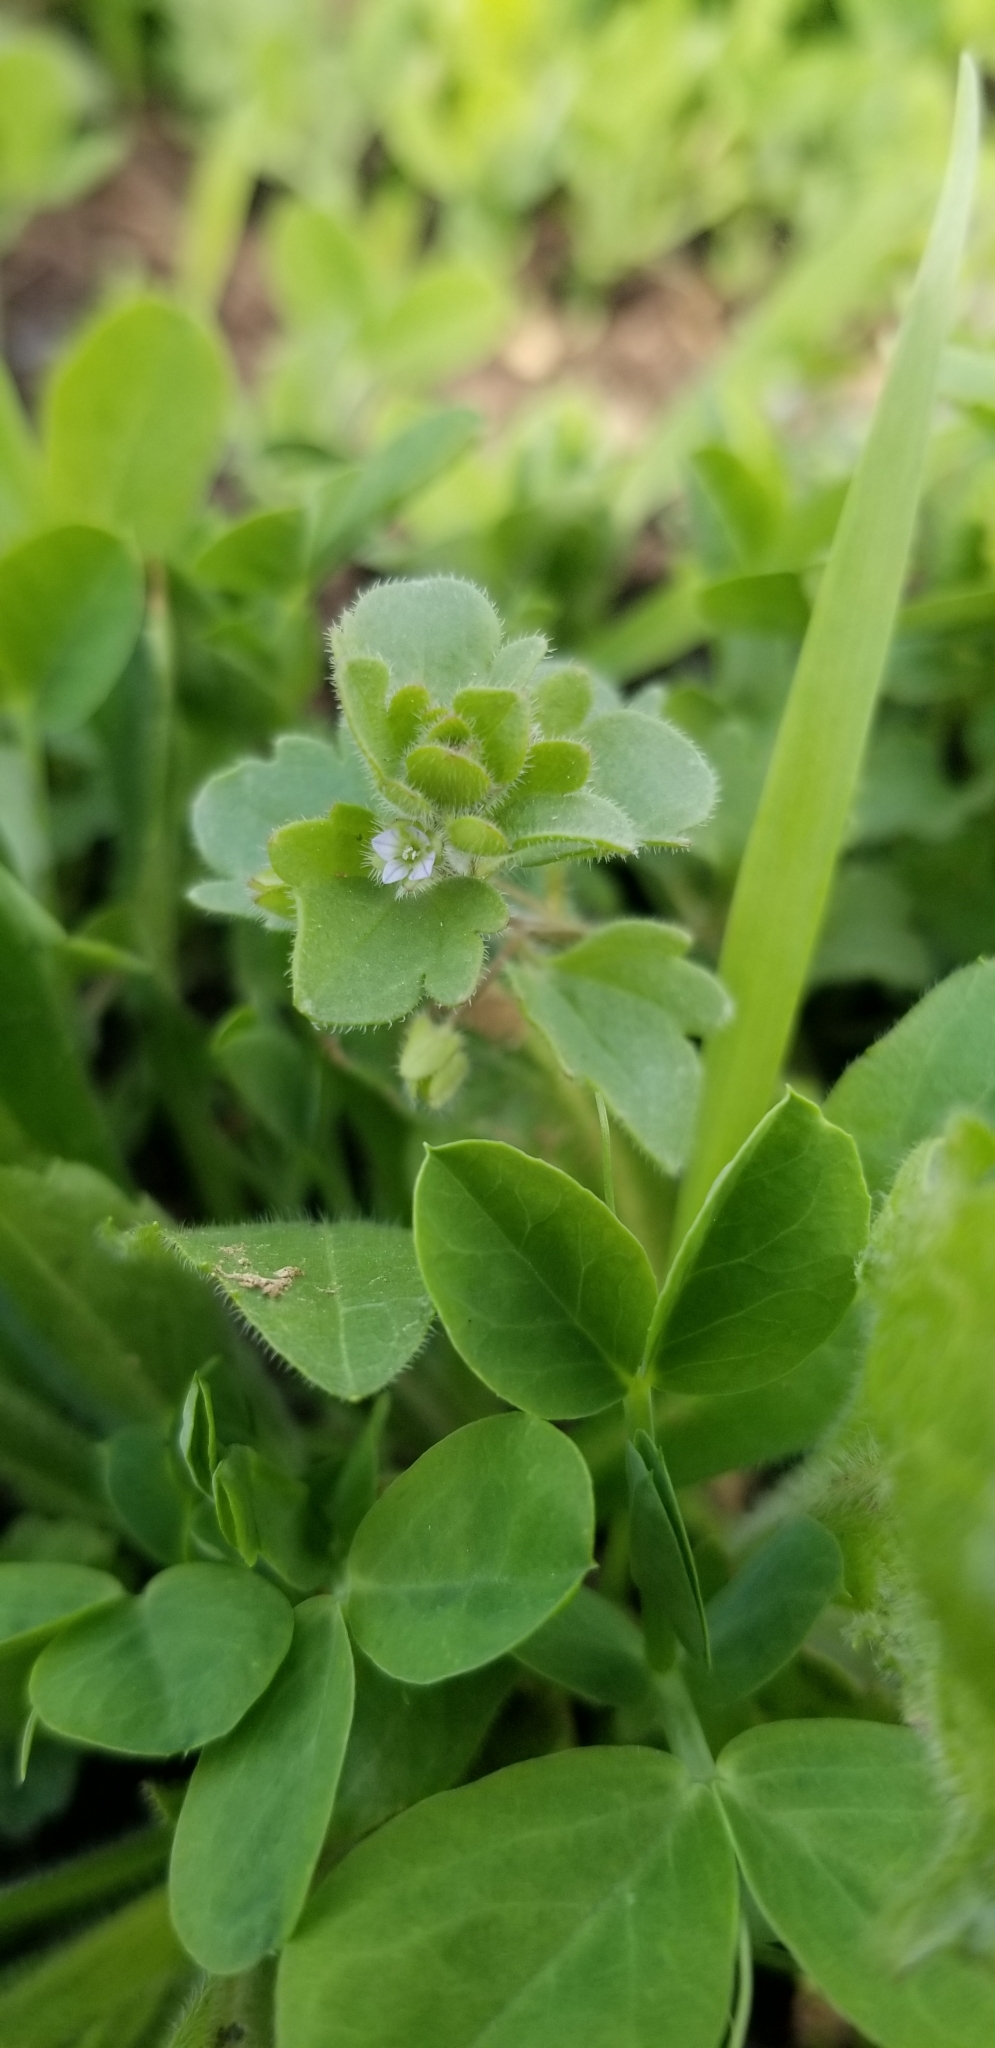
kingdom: Plantae
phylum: Tracheophyta
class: Magnoliopsida
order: Lamiales
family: Plantaginaceae
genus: Veronica
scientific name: Veronica hederifolia
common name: Ivy-leaved speedwell
